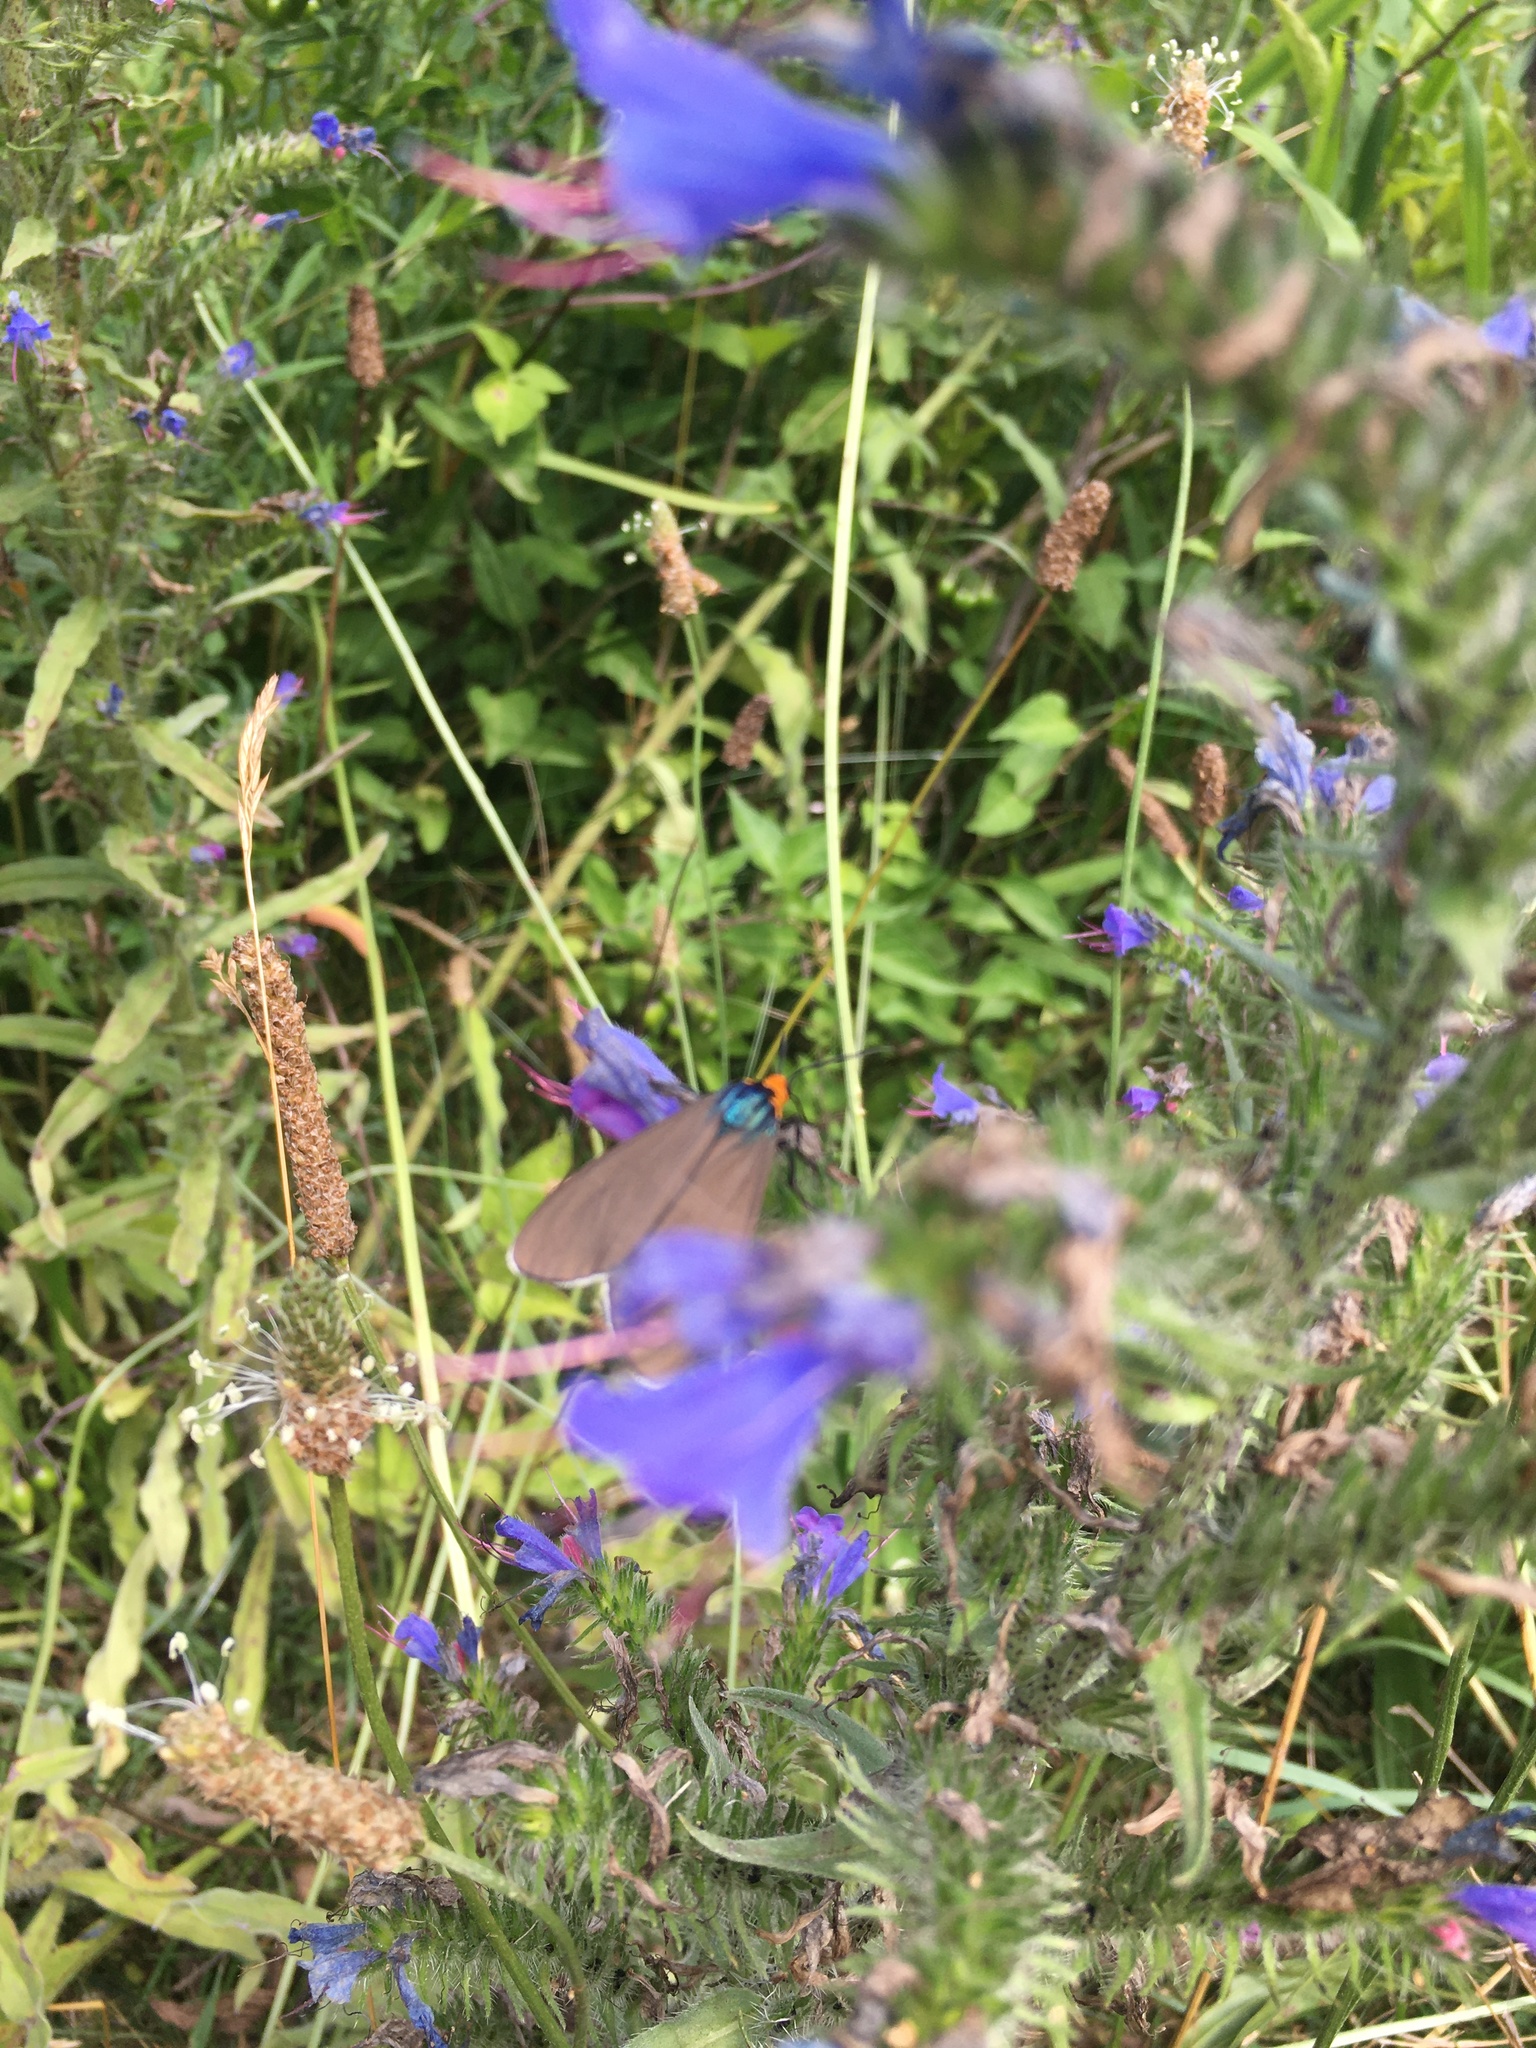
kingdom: Animalia
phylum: Arthropoda
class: Insecta
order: Lepidoptera
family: Erebidae
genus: Ctenucha
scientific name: Ctenucha virginica
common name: Virginia ctenucha moth
